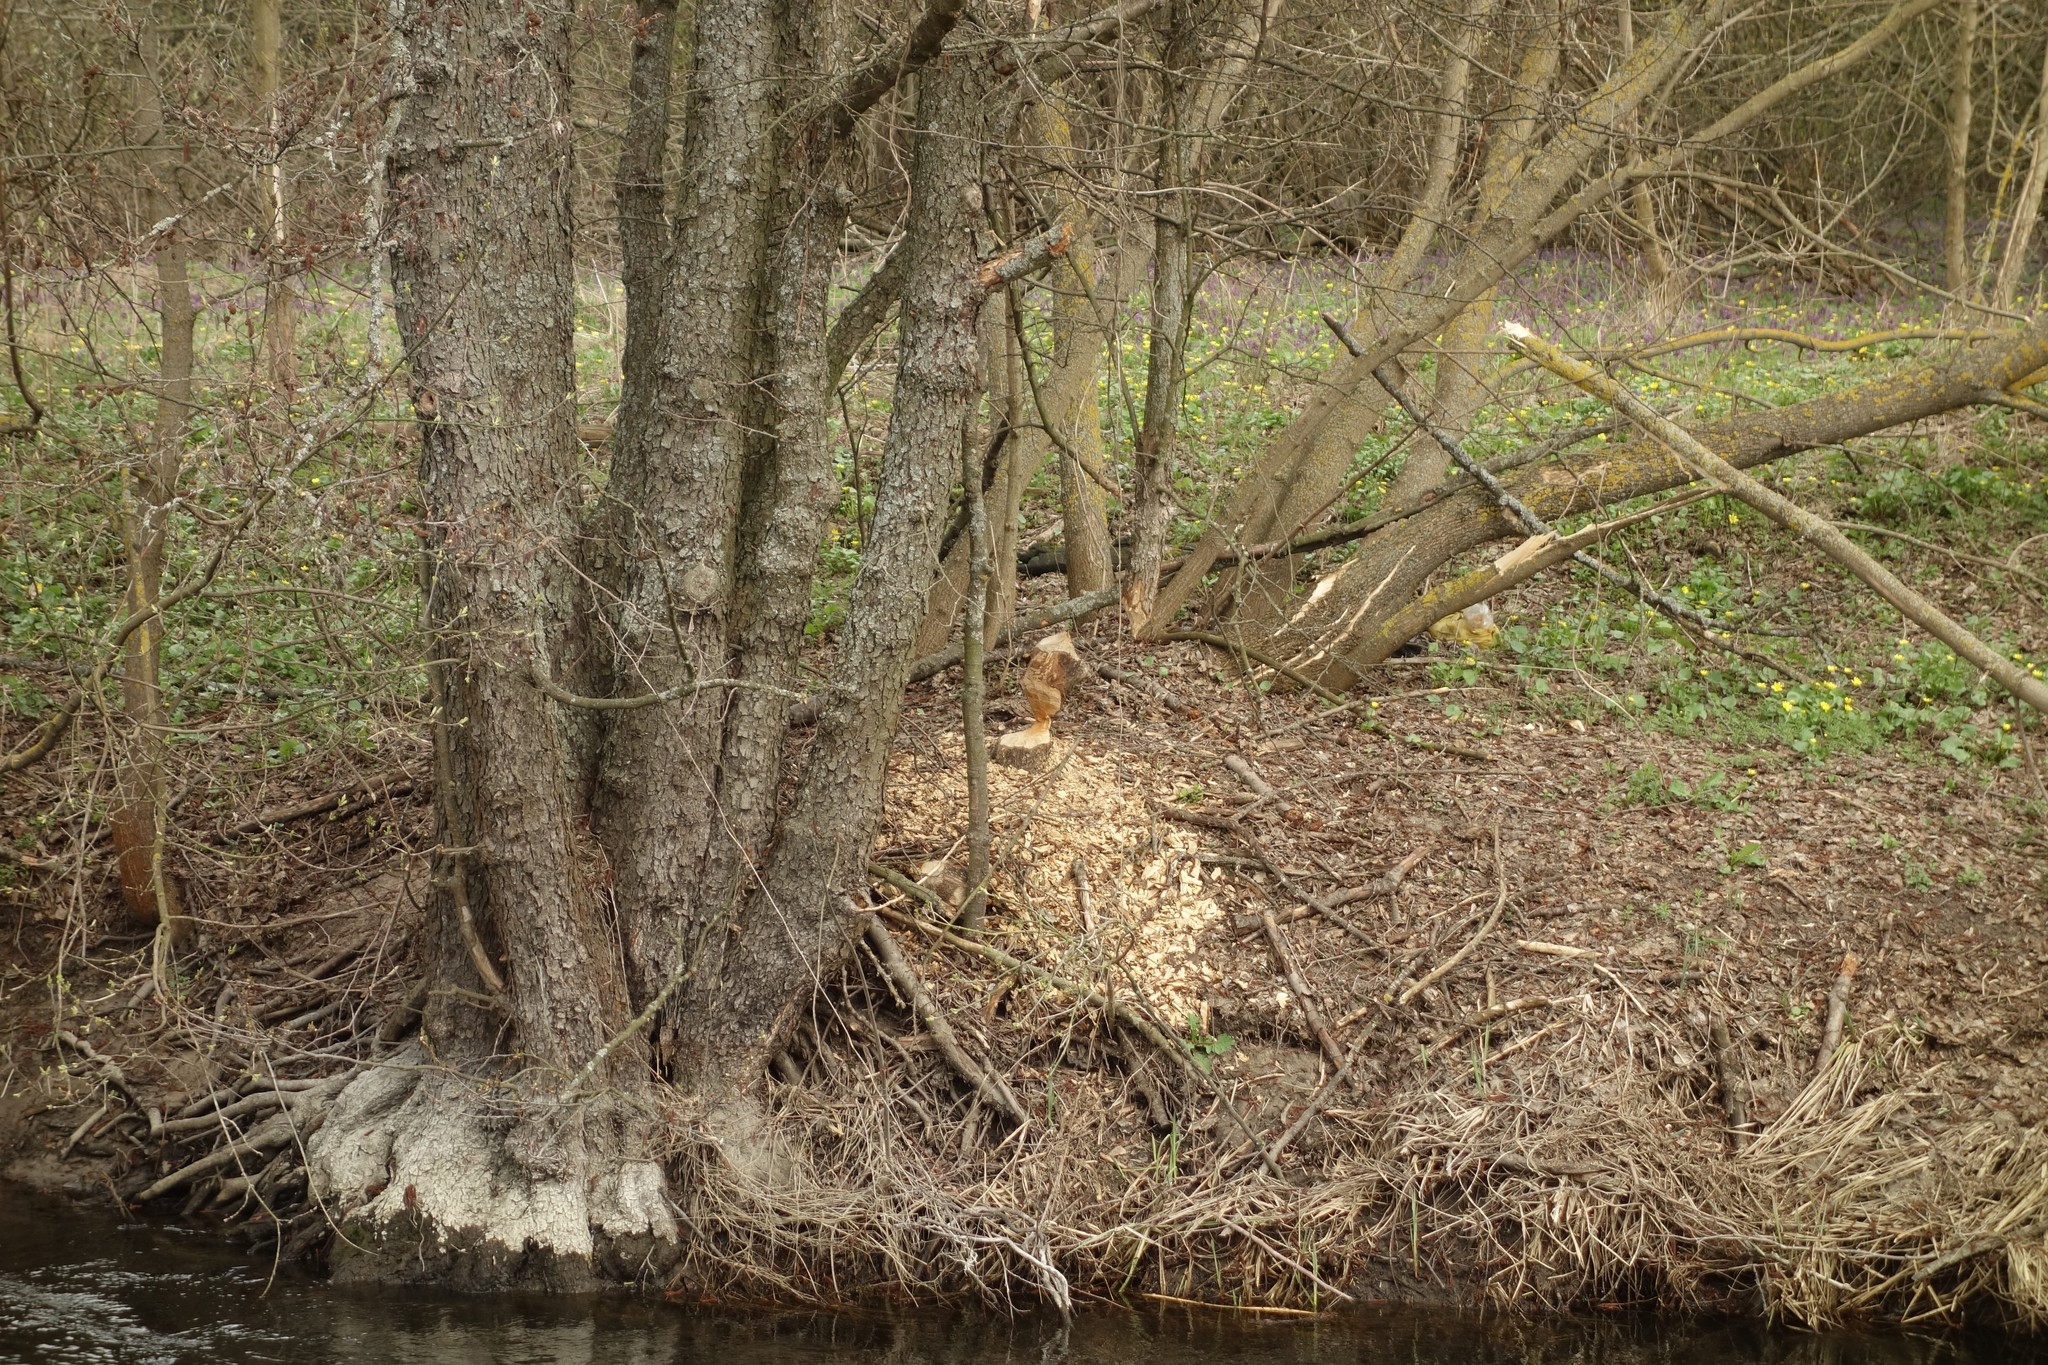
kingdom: Animalia
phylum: Chordata
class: Mammalia
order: Rodentia
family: Castoridae
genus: Castor
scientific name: Castor fiber
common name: Eurasian beaver
